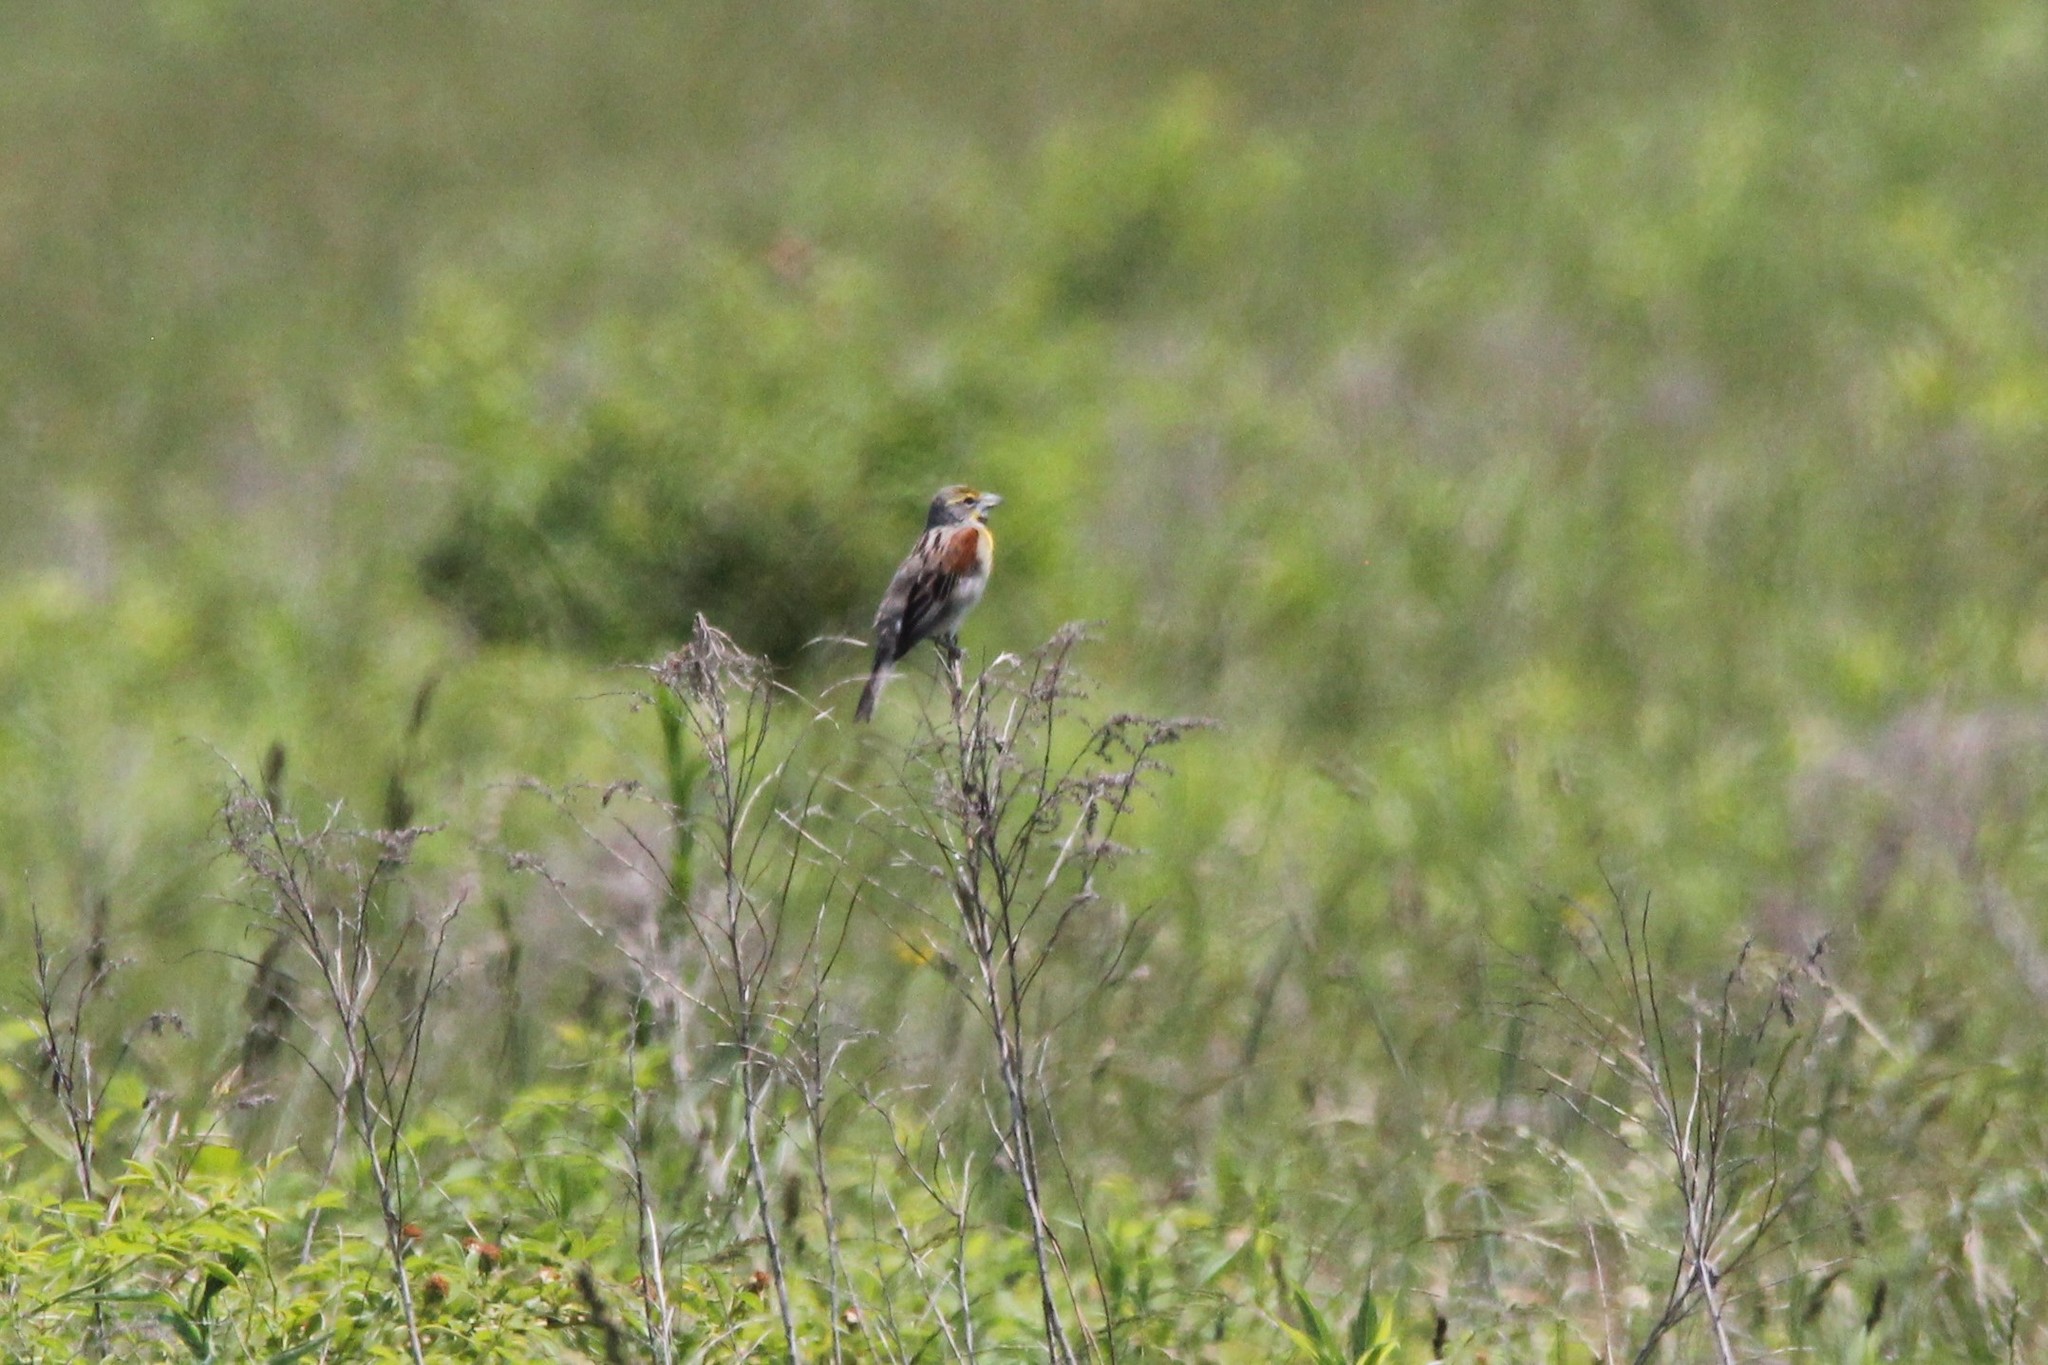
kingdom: Animalia
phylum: Chordata
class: Aves
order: Passeriformes
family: Cardinalidae
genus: Spiza
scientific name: Spiza americana
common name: Dickcissel
